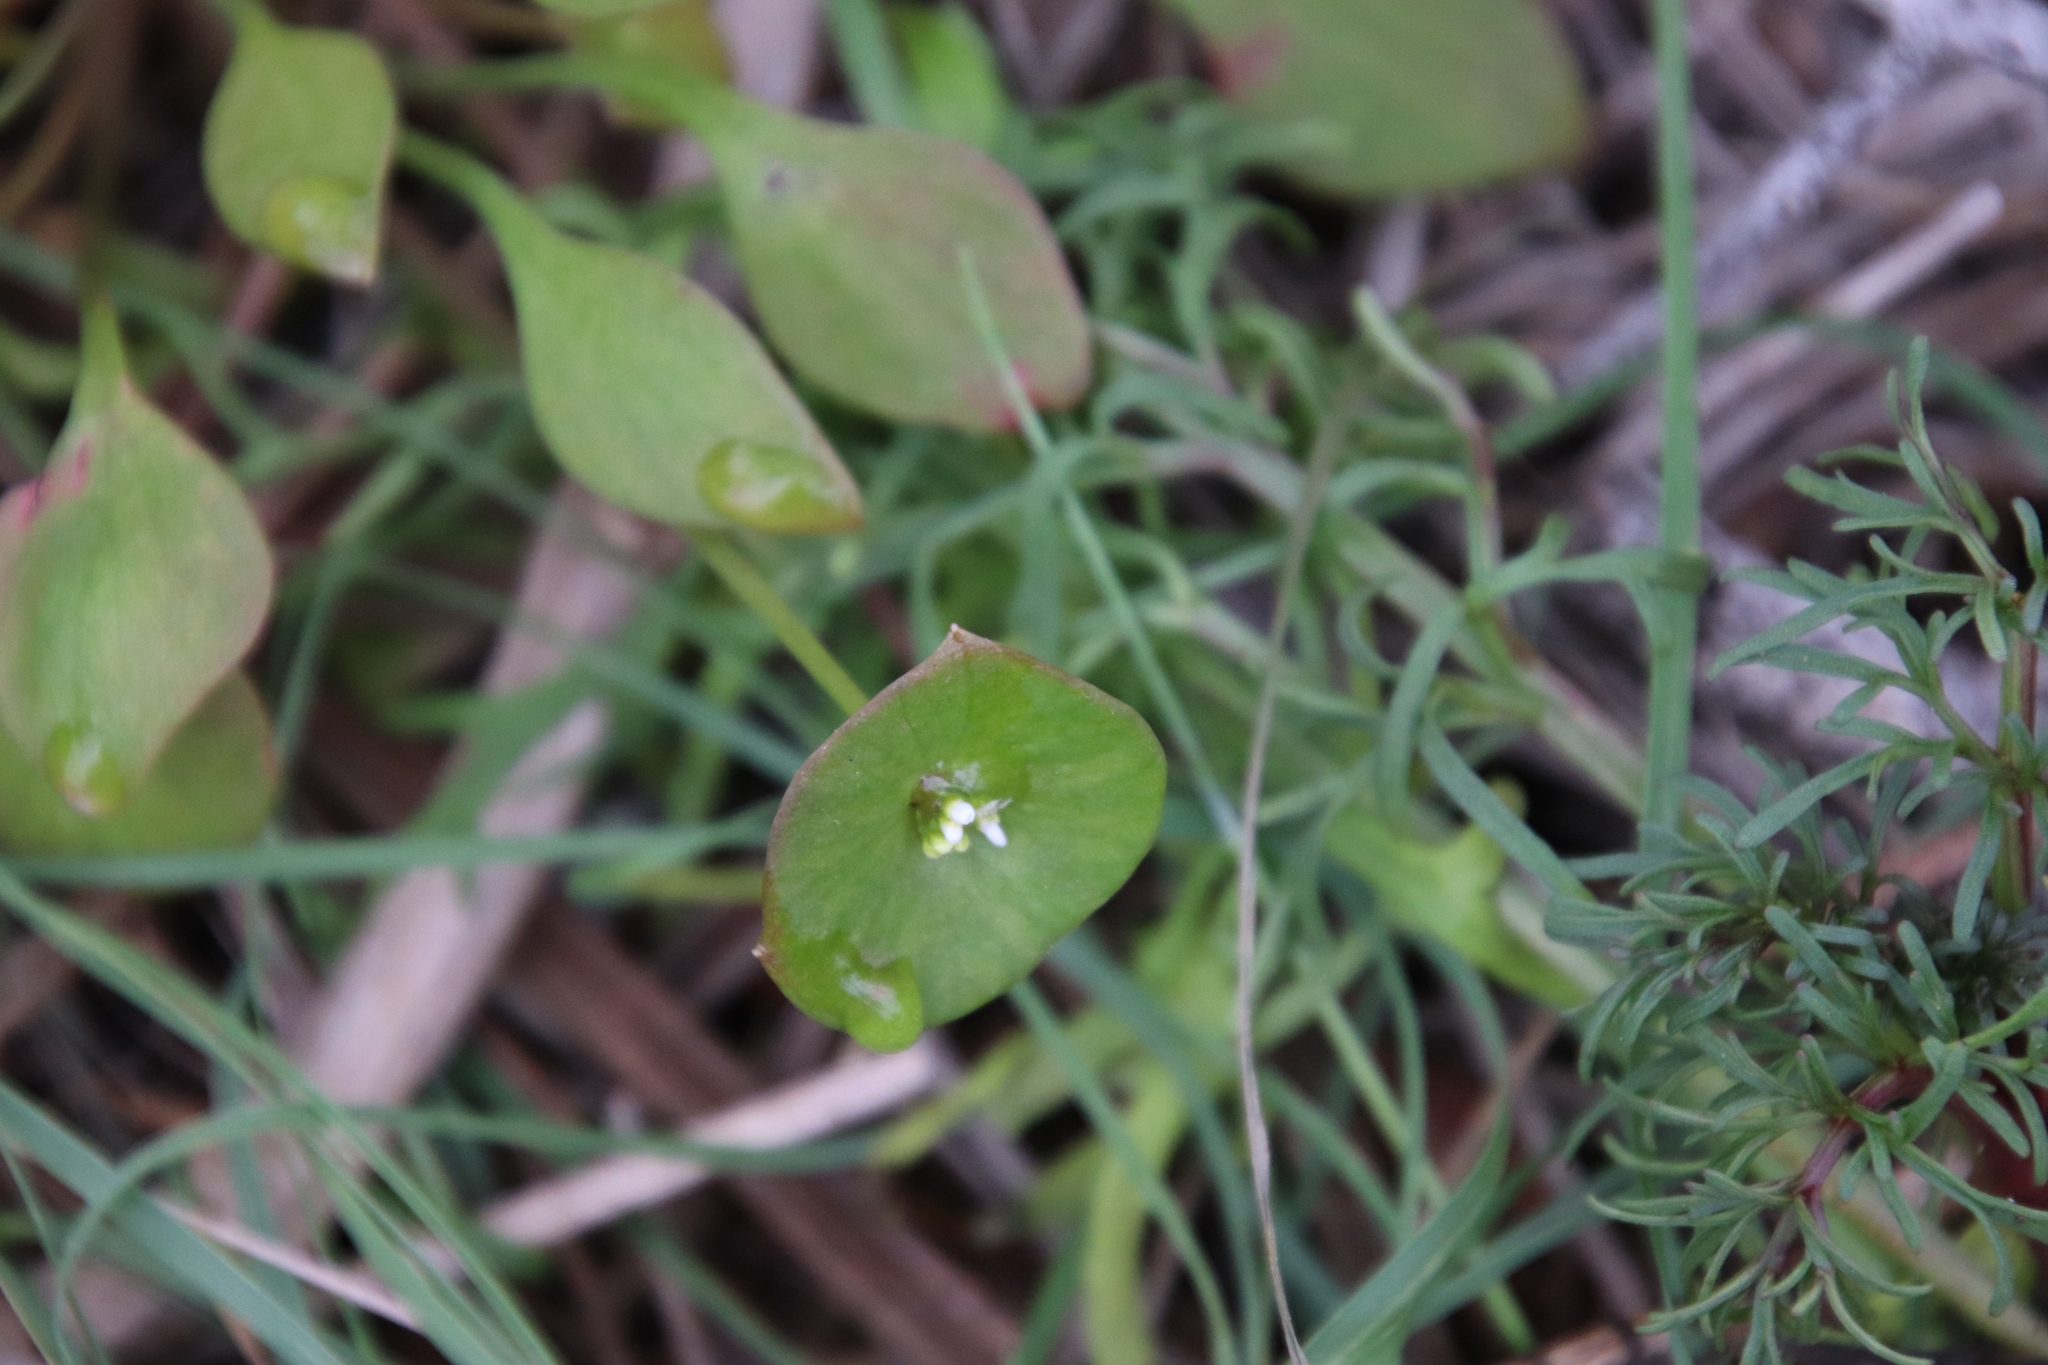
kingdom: Plantae
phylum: Tracheophyta
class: Magnoliopsida
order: Caryophyllales
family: Montiaceae
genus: Claytonia
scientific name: Claytonia perfoliata
